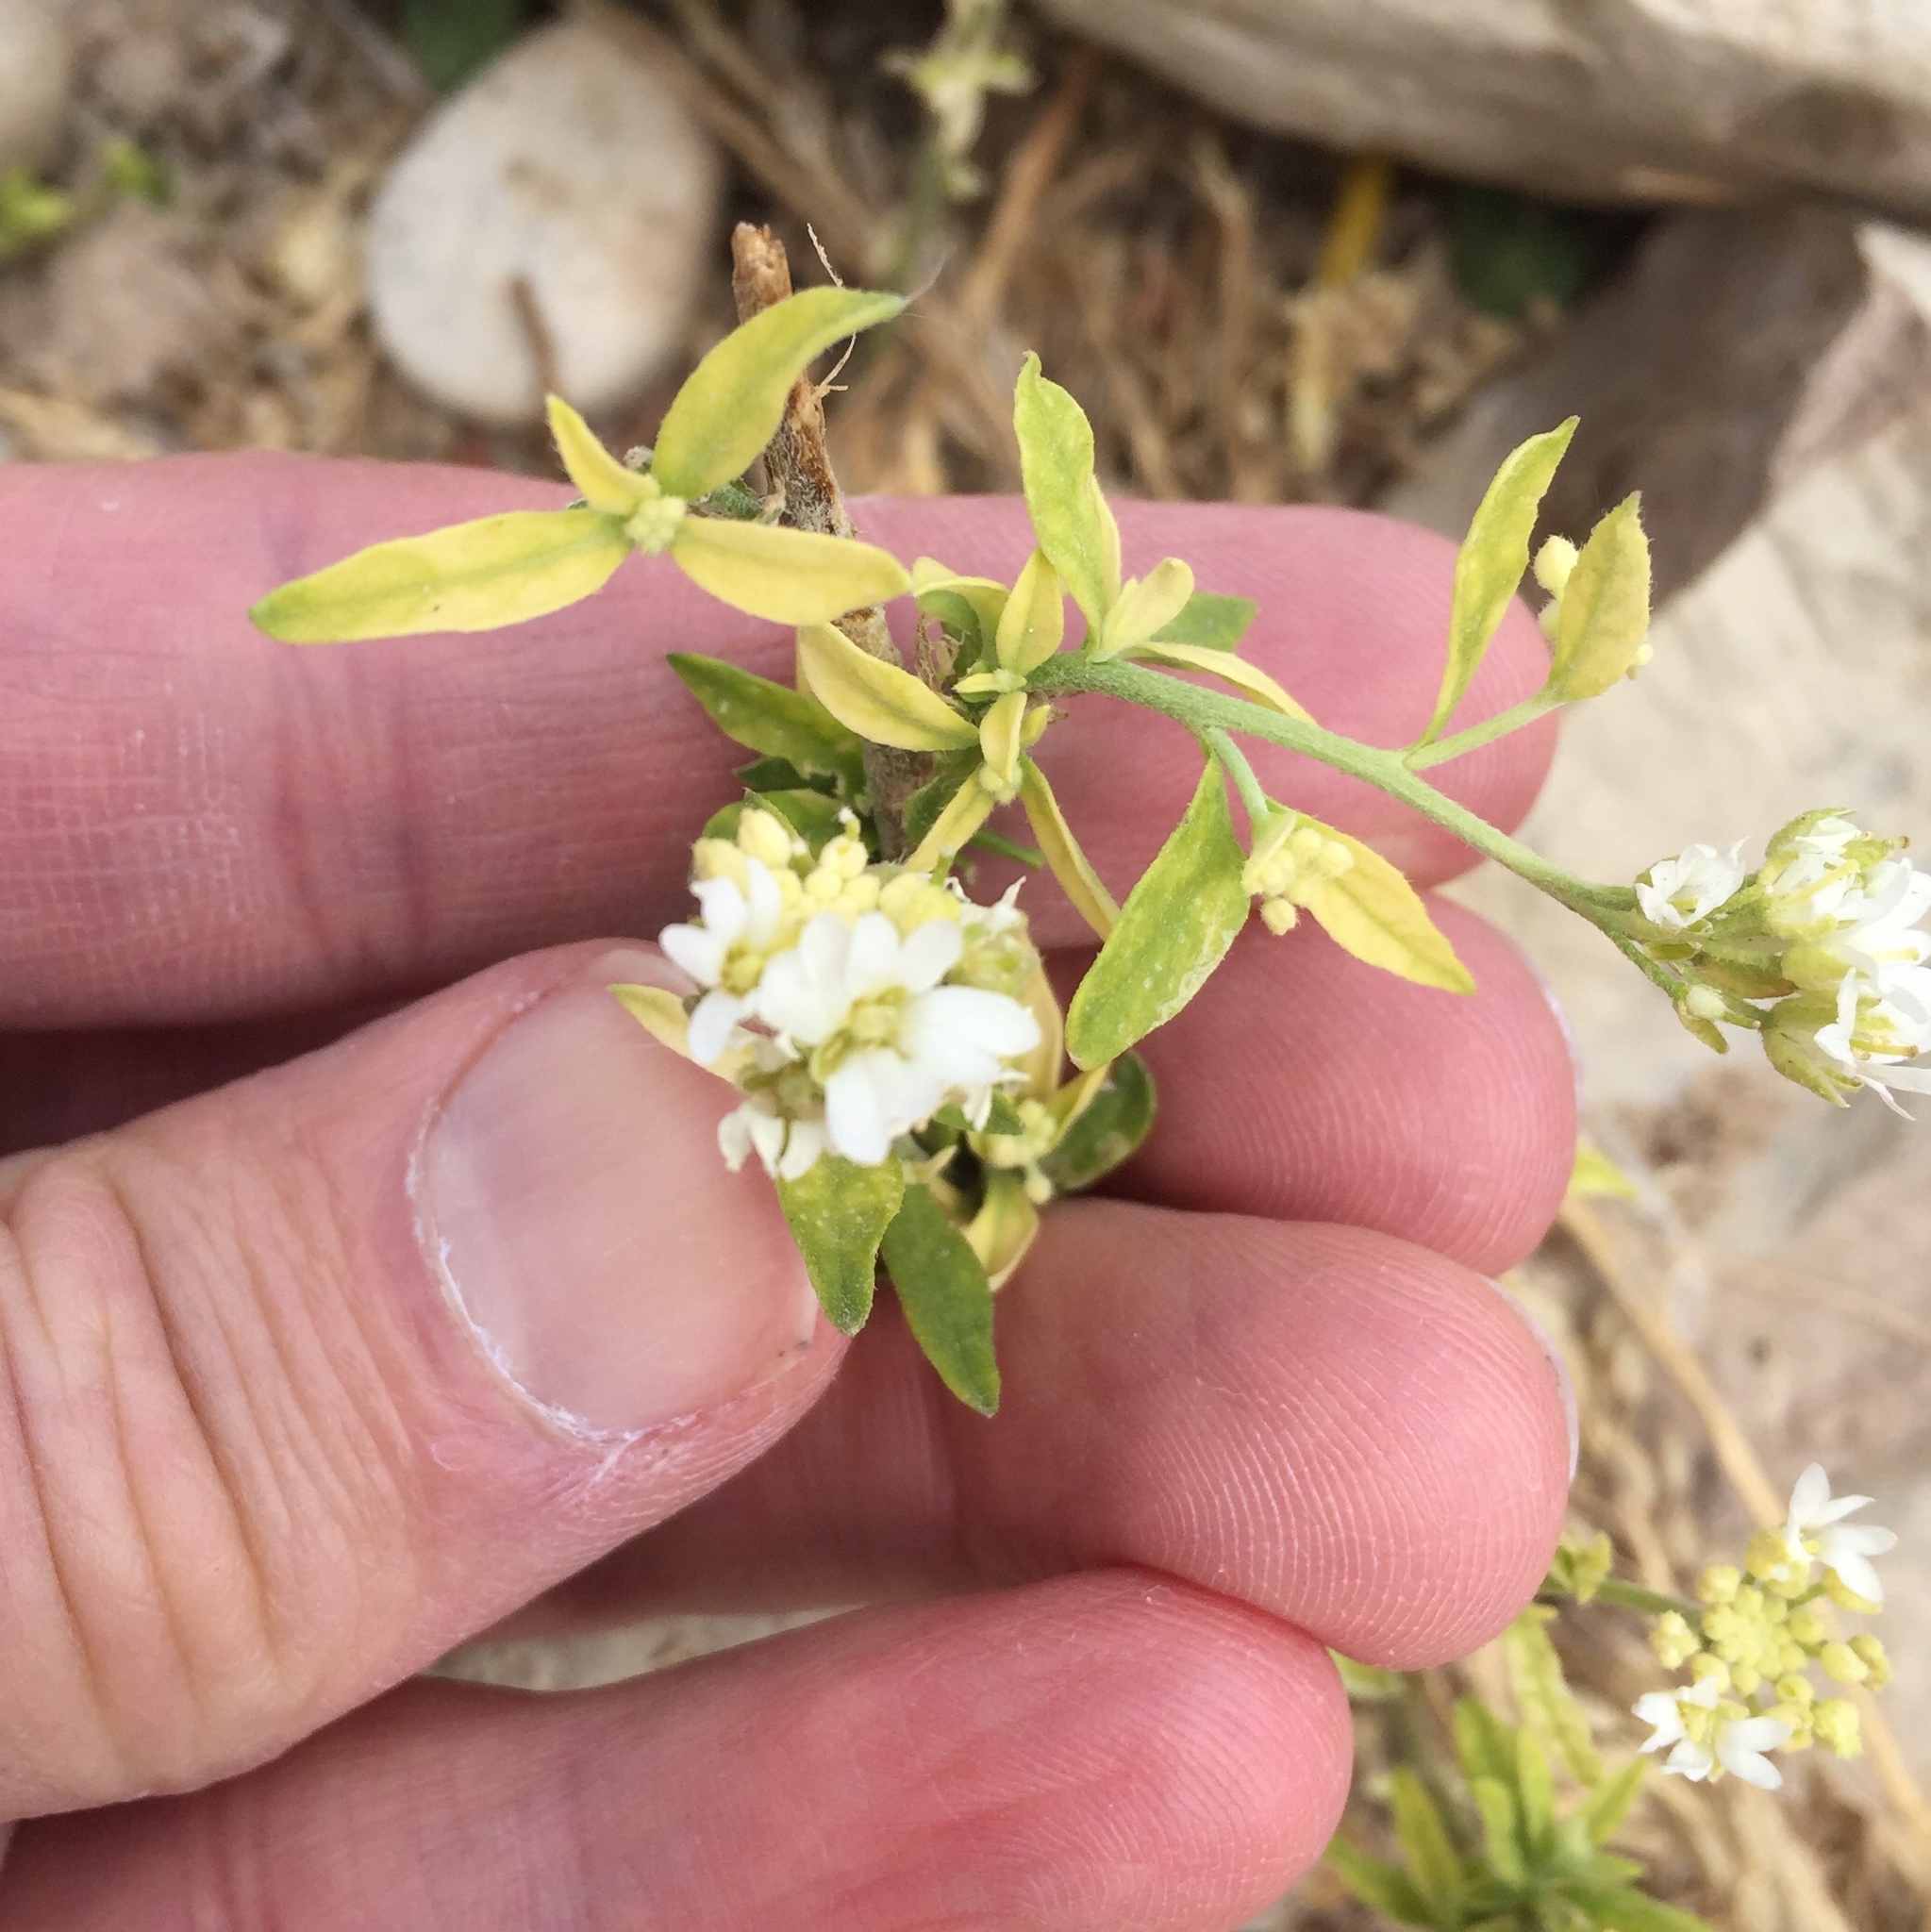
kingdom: Plantae
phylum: Tracheophyta
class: Magnoliopsida
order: Brassicales
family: Brassicaceae
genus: Berteroa
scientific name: Berteroa incana
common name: Hoary alison
